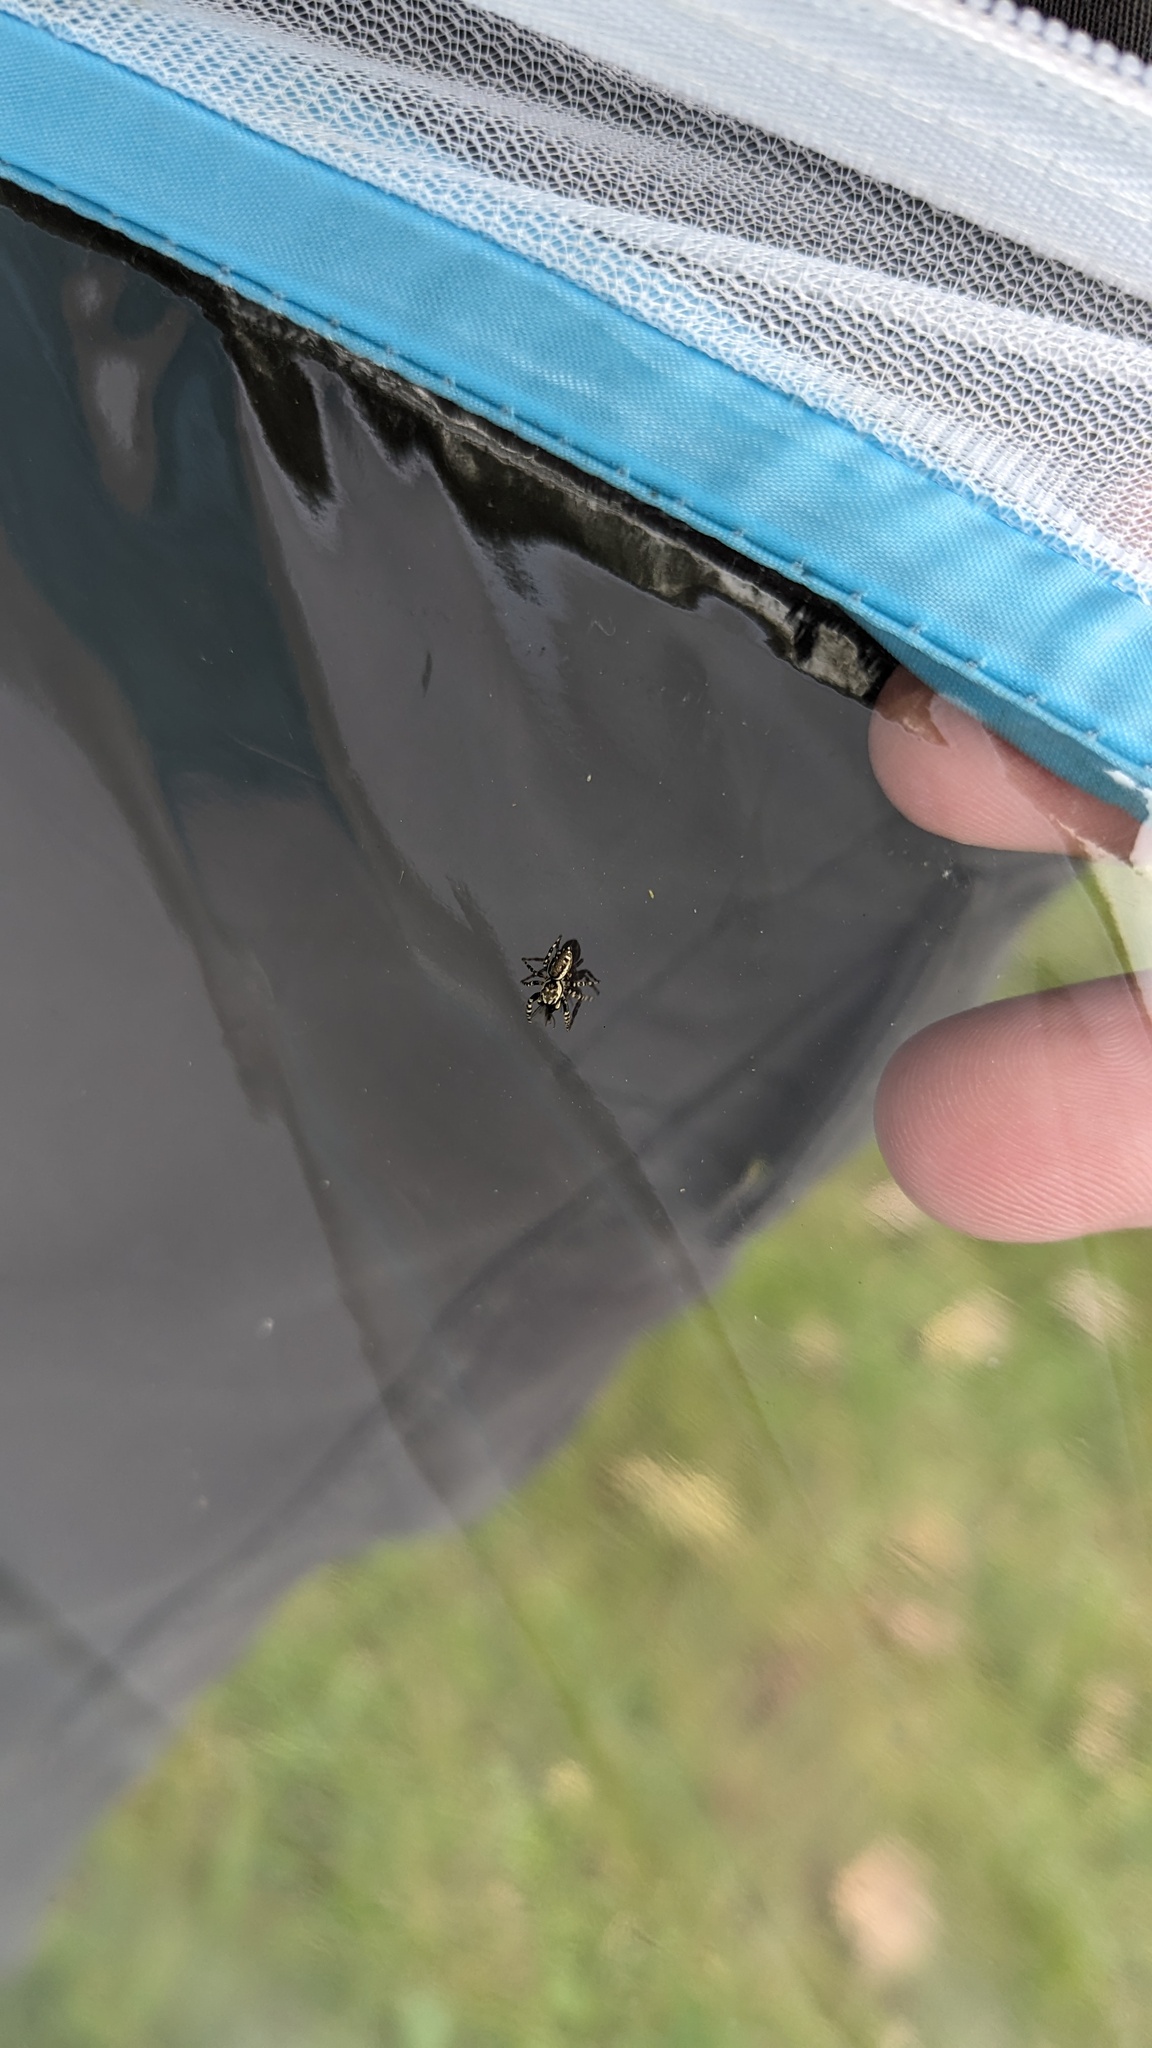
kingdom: Animalia
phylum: Arthropoda
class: Arachnida
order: Araneae
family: Salticidae
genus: Pelegrina
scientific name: Pelegrina galathea
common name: Jumping spiders
